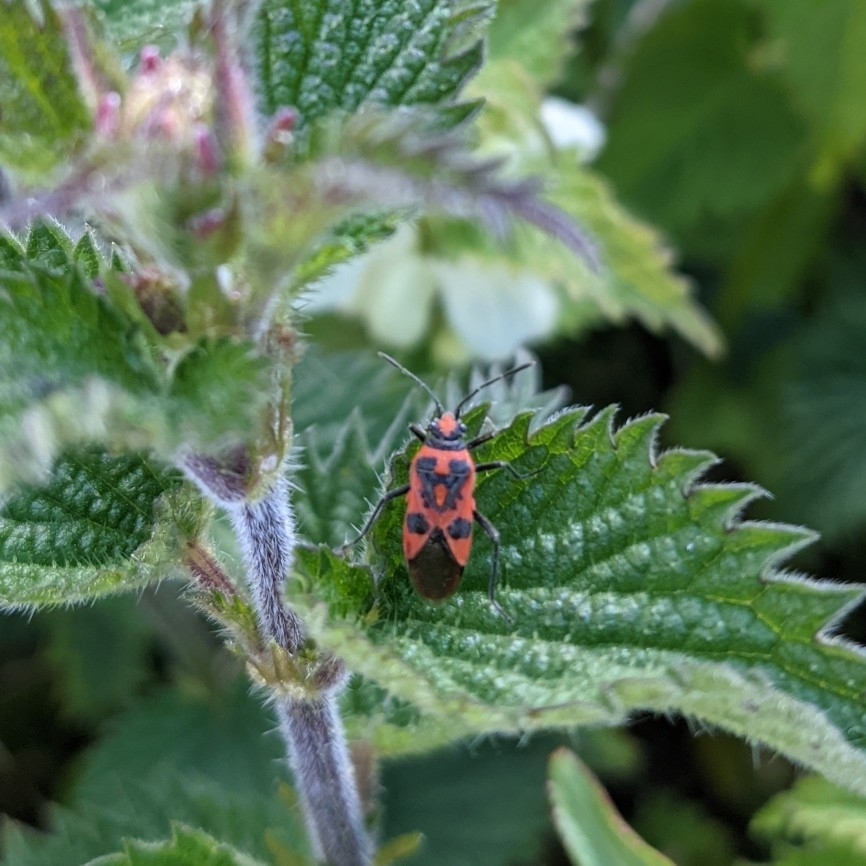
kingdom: Animalia
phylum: Arthropoda
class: Insecta
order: Hemiptera
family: Rhopalidae
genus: Corizus
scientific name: Corizus hyoscyami
